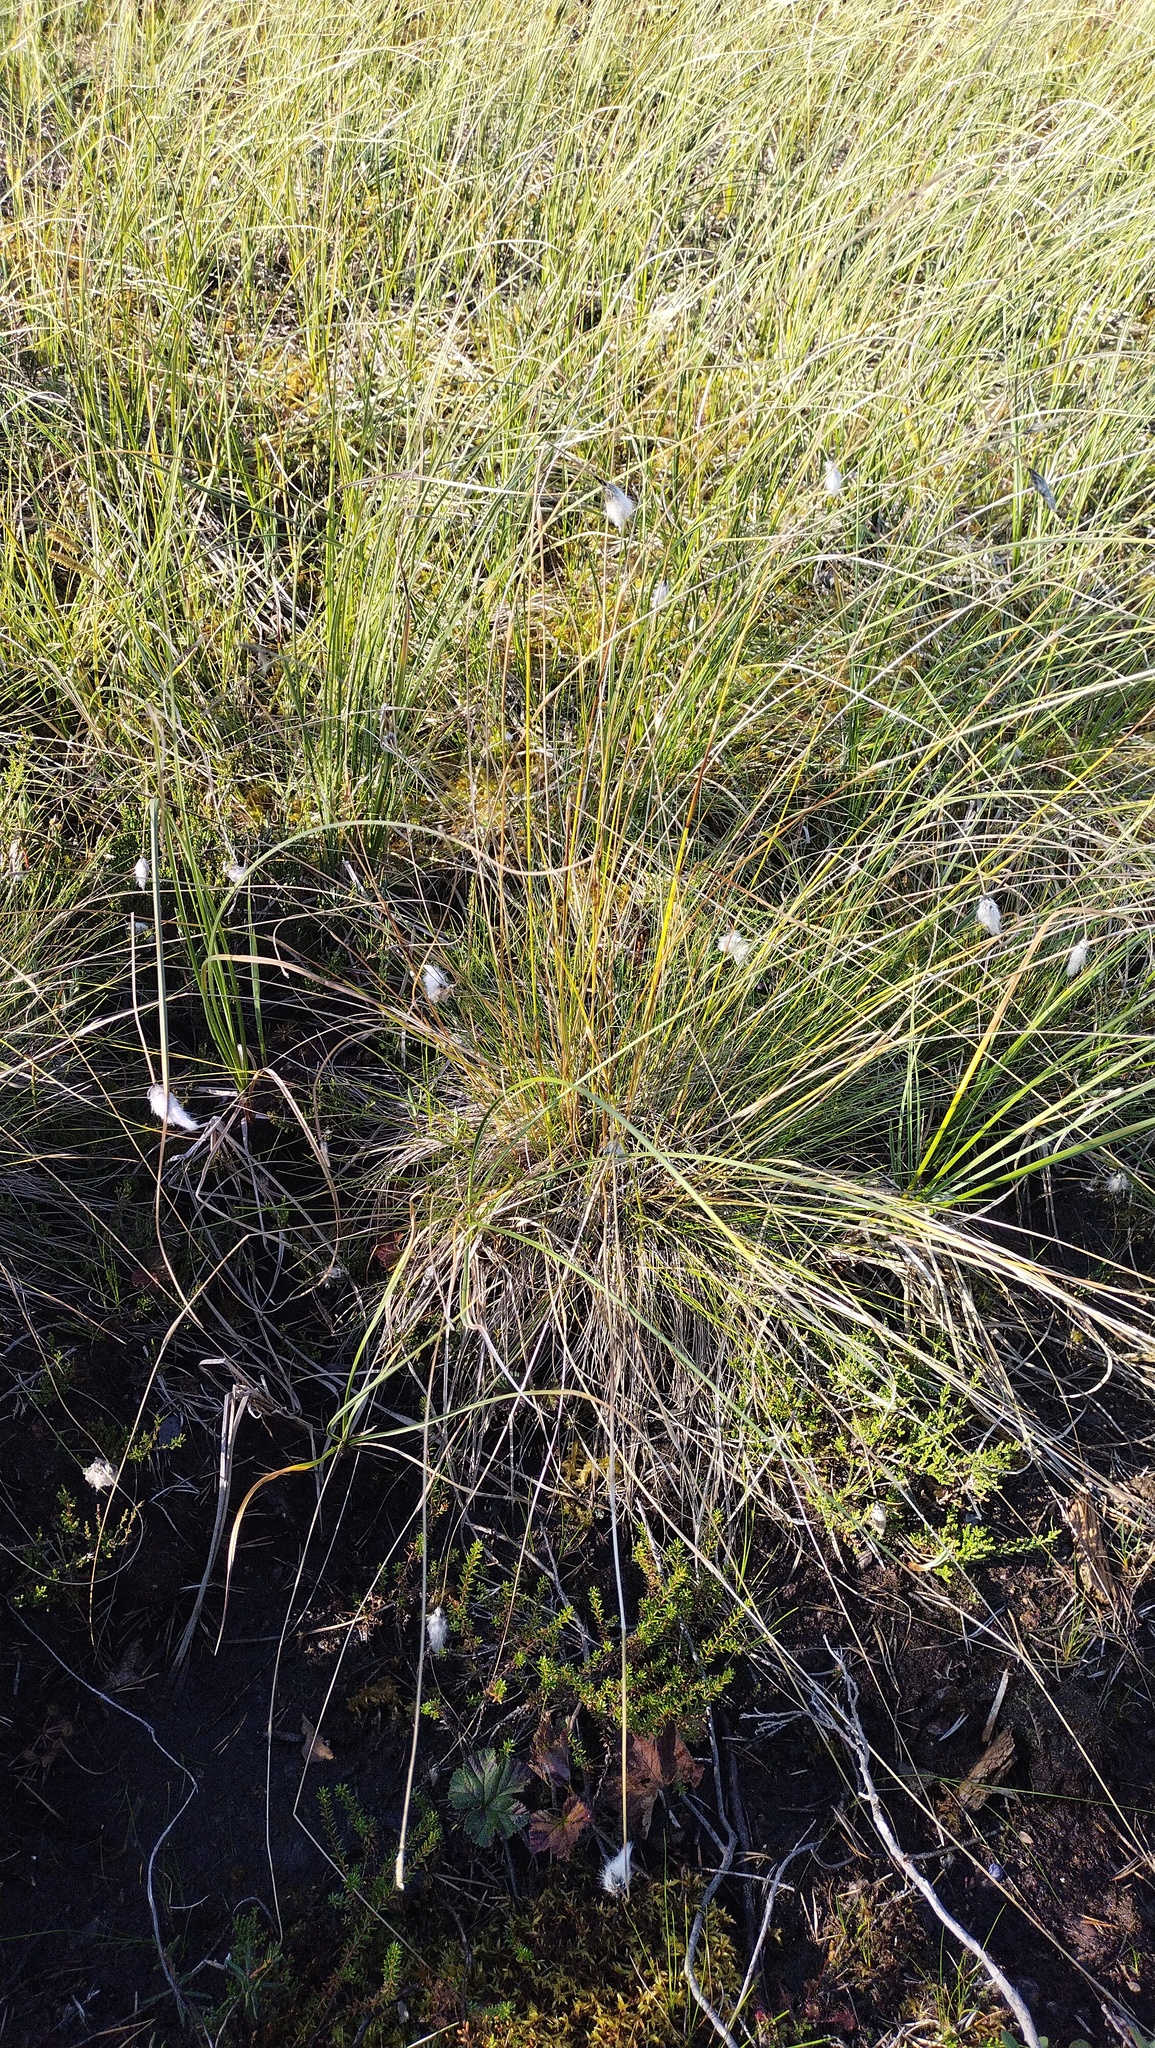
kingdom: Plantae
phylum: Tracheophyta
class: Liliopsida
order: Poales
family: Cyperaceae
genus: Eriophorum
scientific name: Eriophorum vaginatum
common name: Hare's-tail cottongrass
